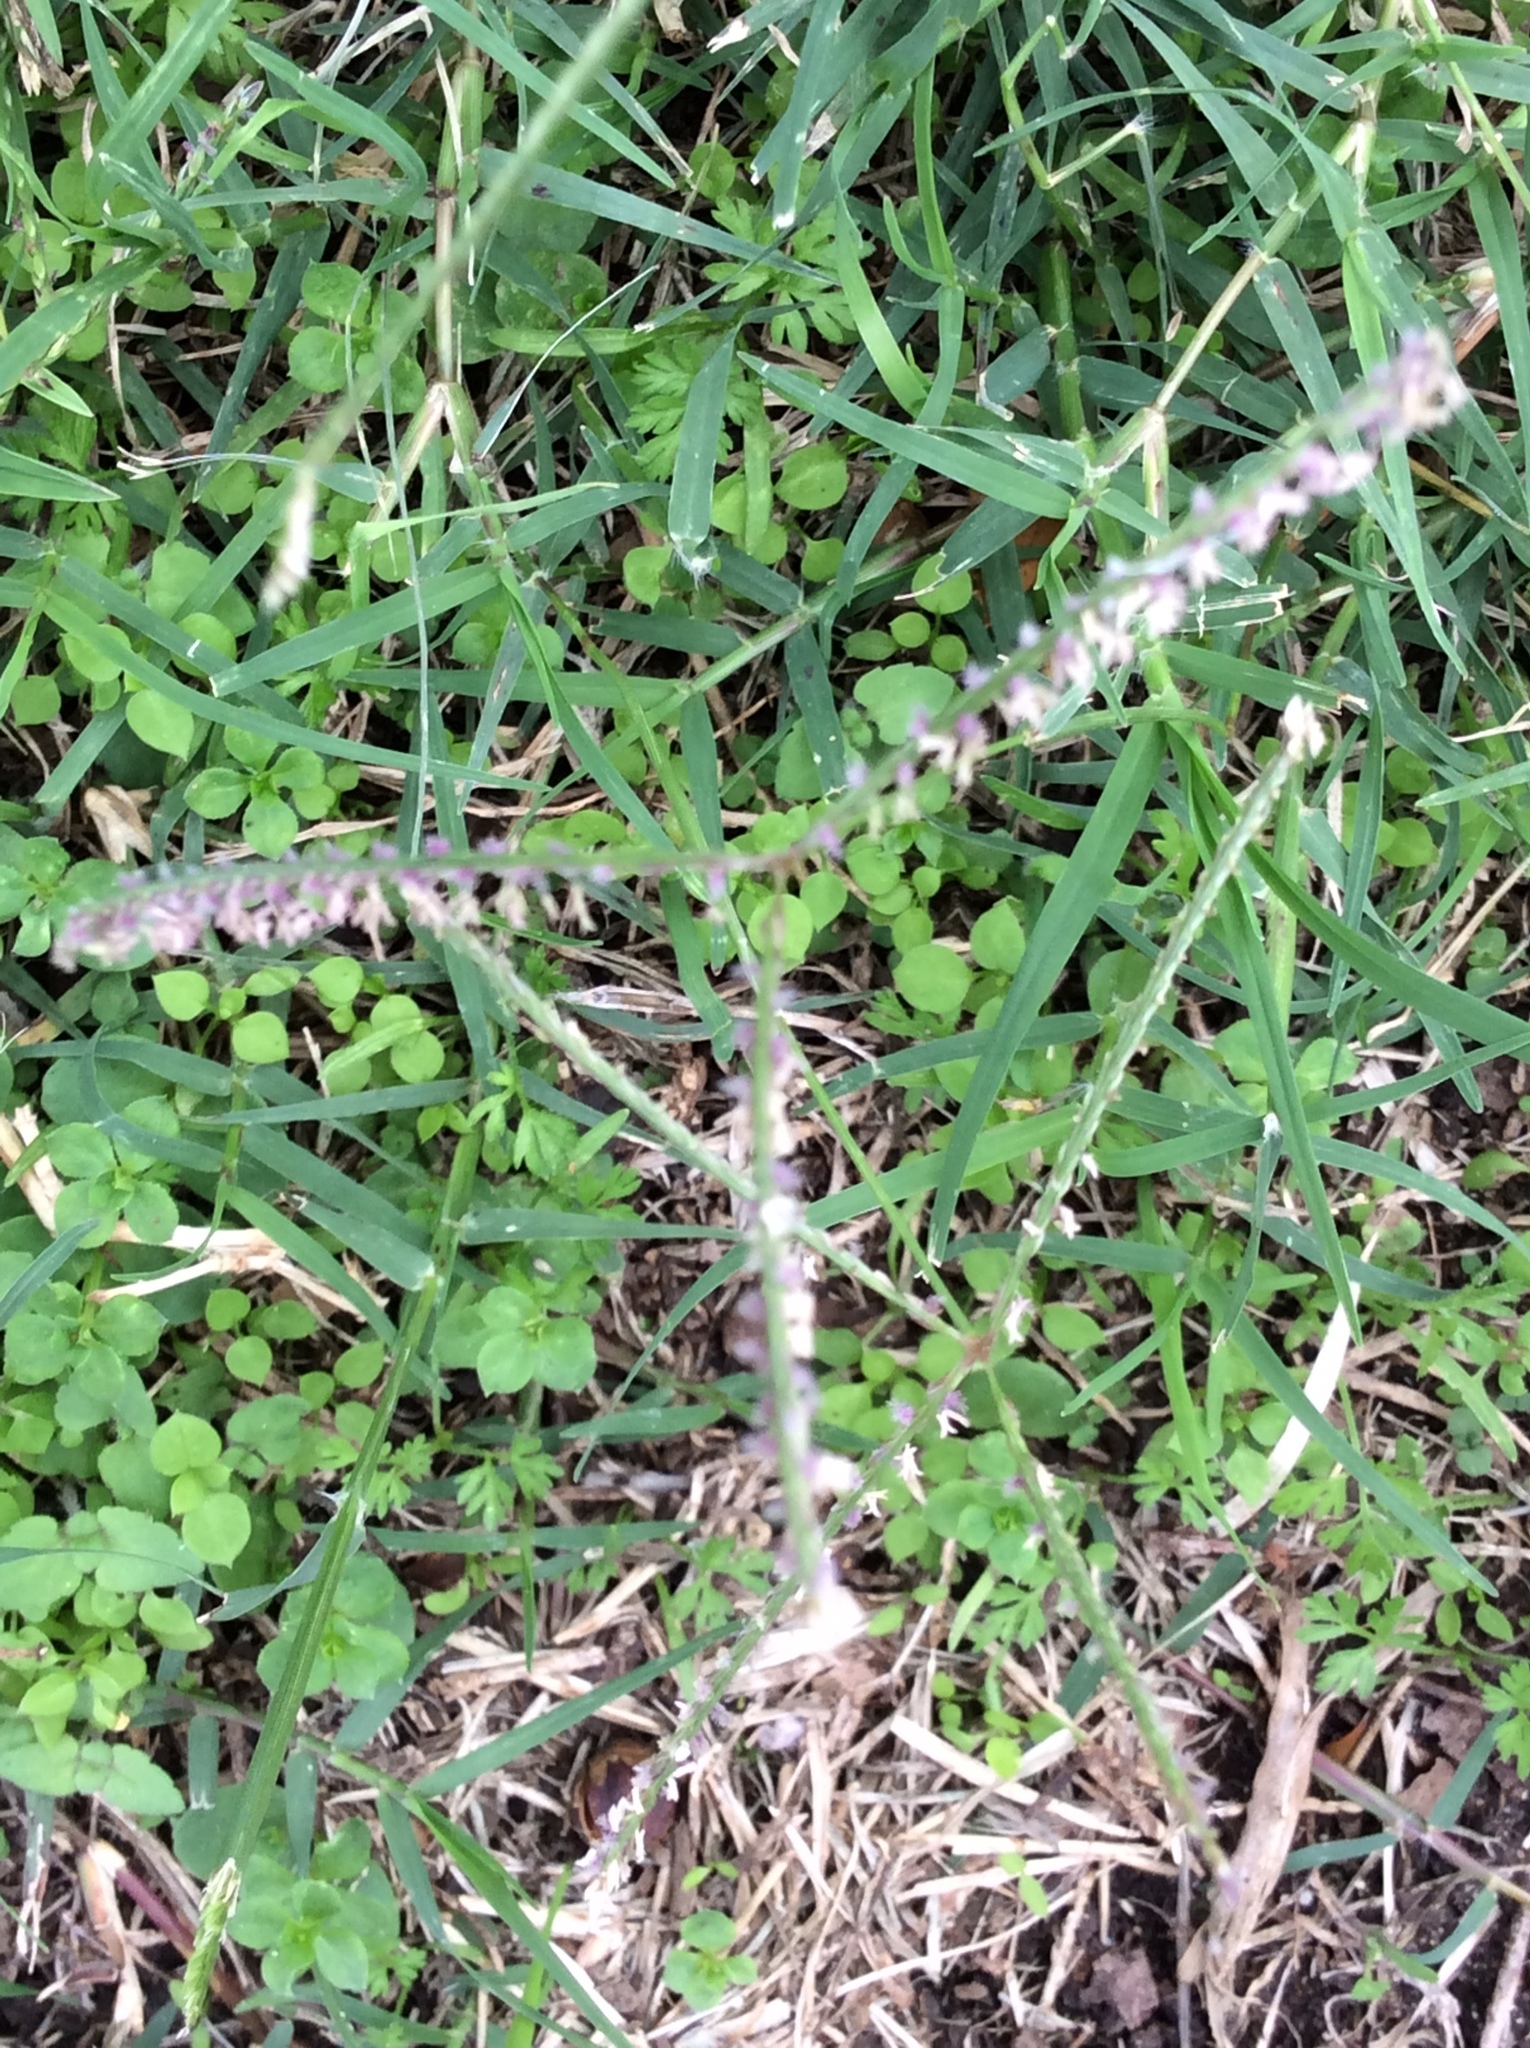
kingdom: Plantae
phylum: Tracheophyta
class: Liliopsida
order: Poales
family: Poaceae
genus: Cynodon
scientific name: Cynodon dactylon
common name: Bermuda grass
